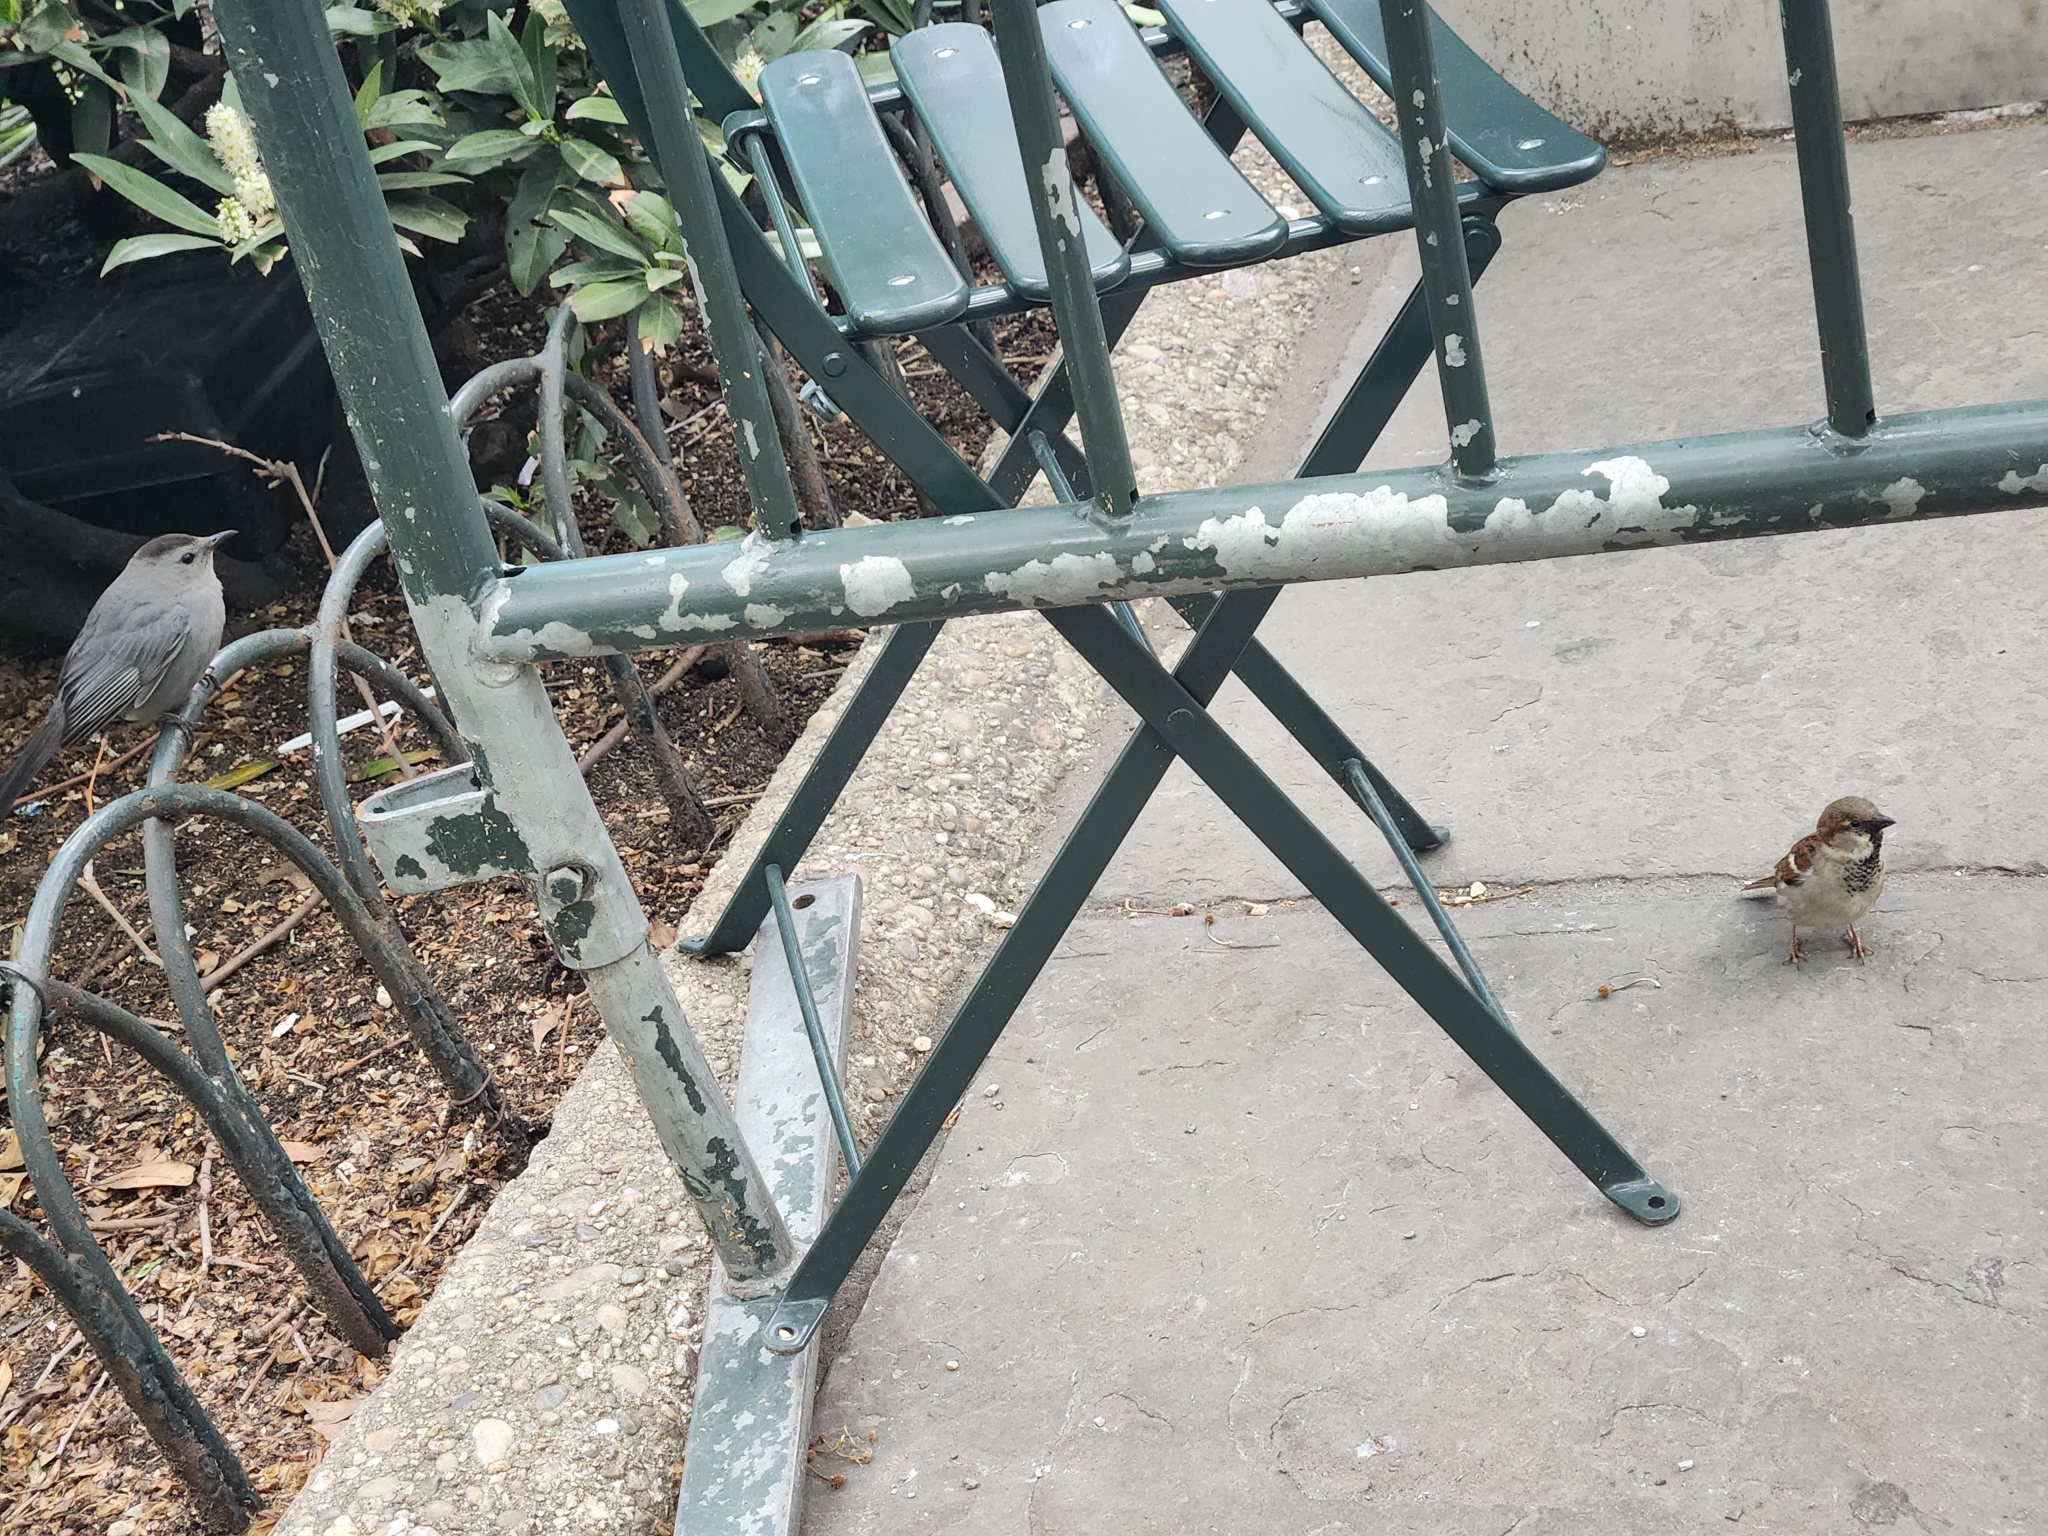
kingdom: Animalia
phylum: Chordata
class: Aves
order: Passeriformes
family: Passeridae
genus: Passer
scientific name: Passer domesticus
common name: House sparrow
